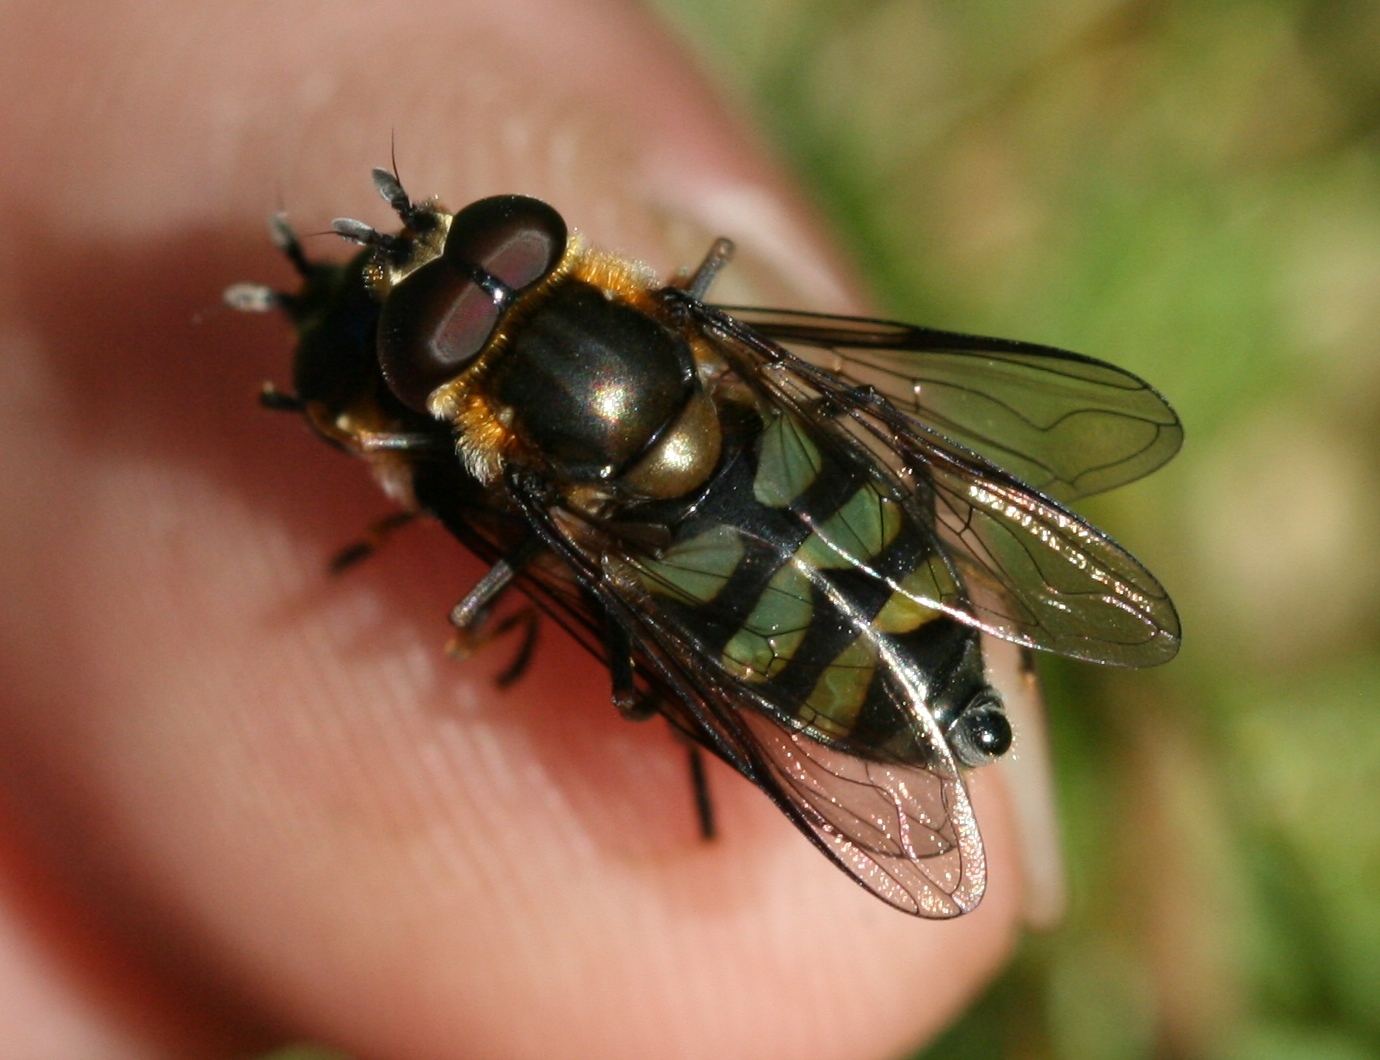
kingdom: Animalia
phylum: Arthropoda
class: Insecta
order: Diptera
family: Syrphidae
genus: Didea
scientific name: Didea fasciata
